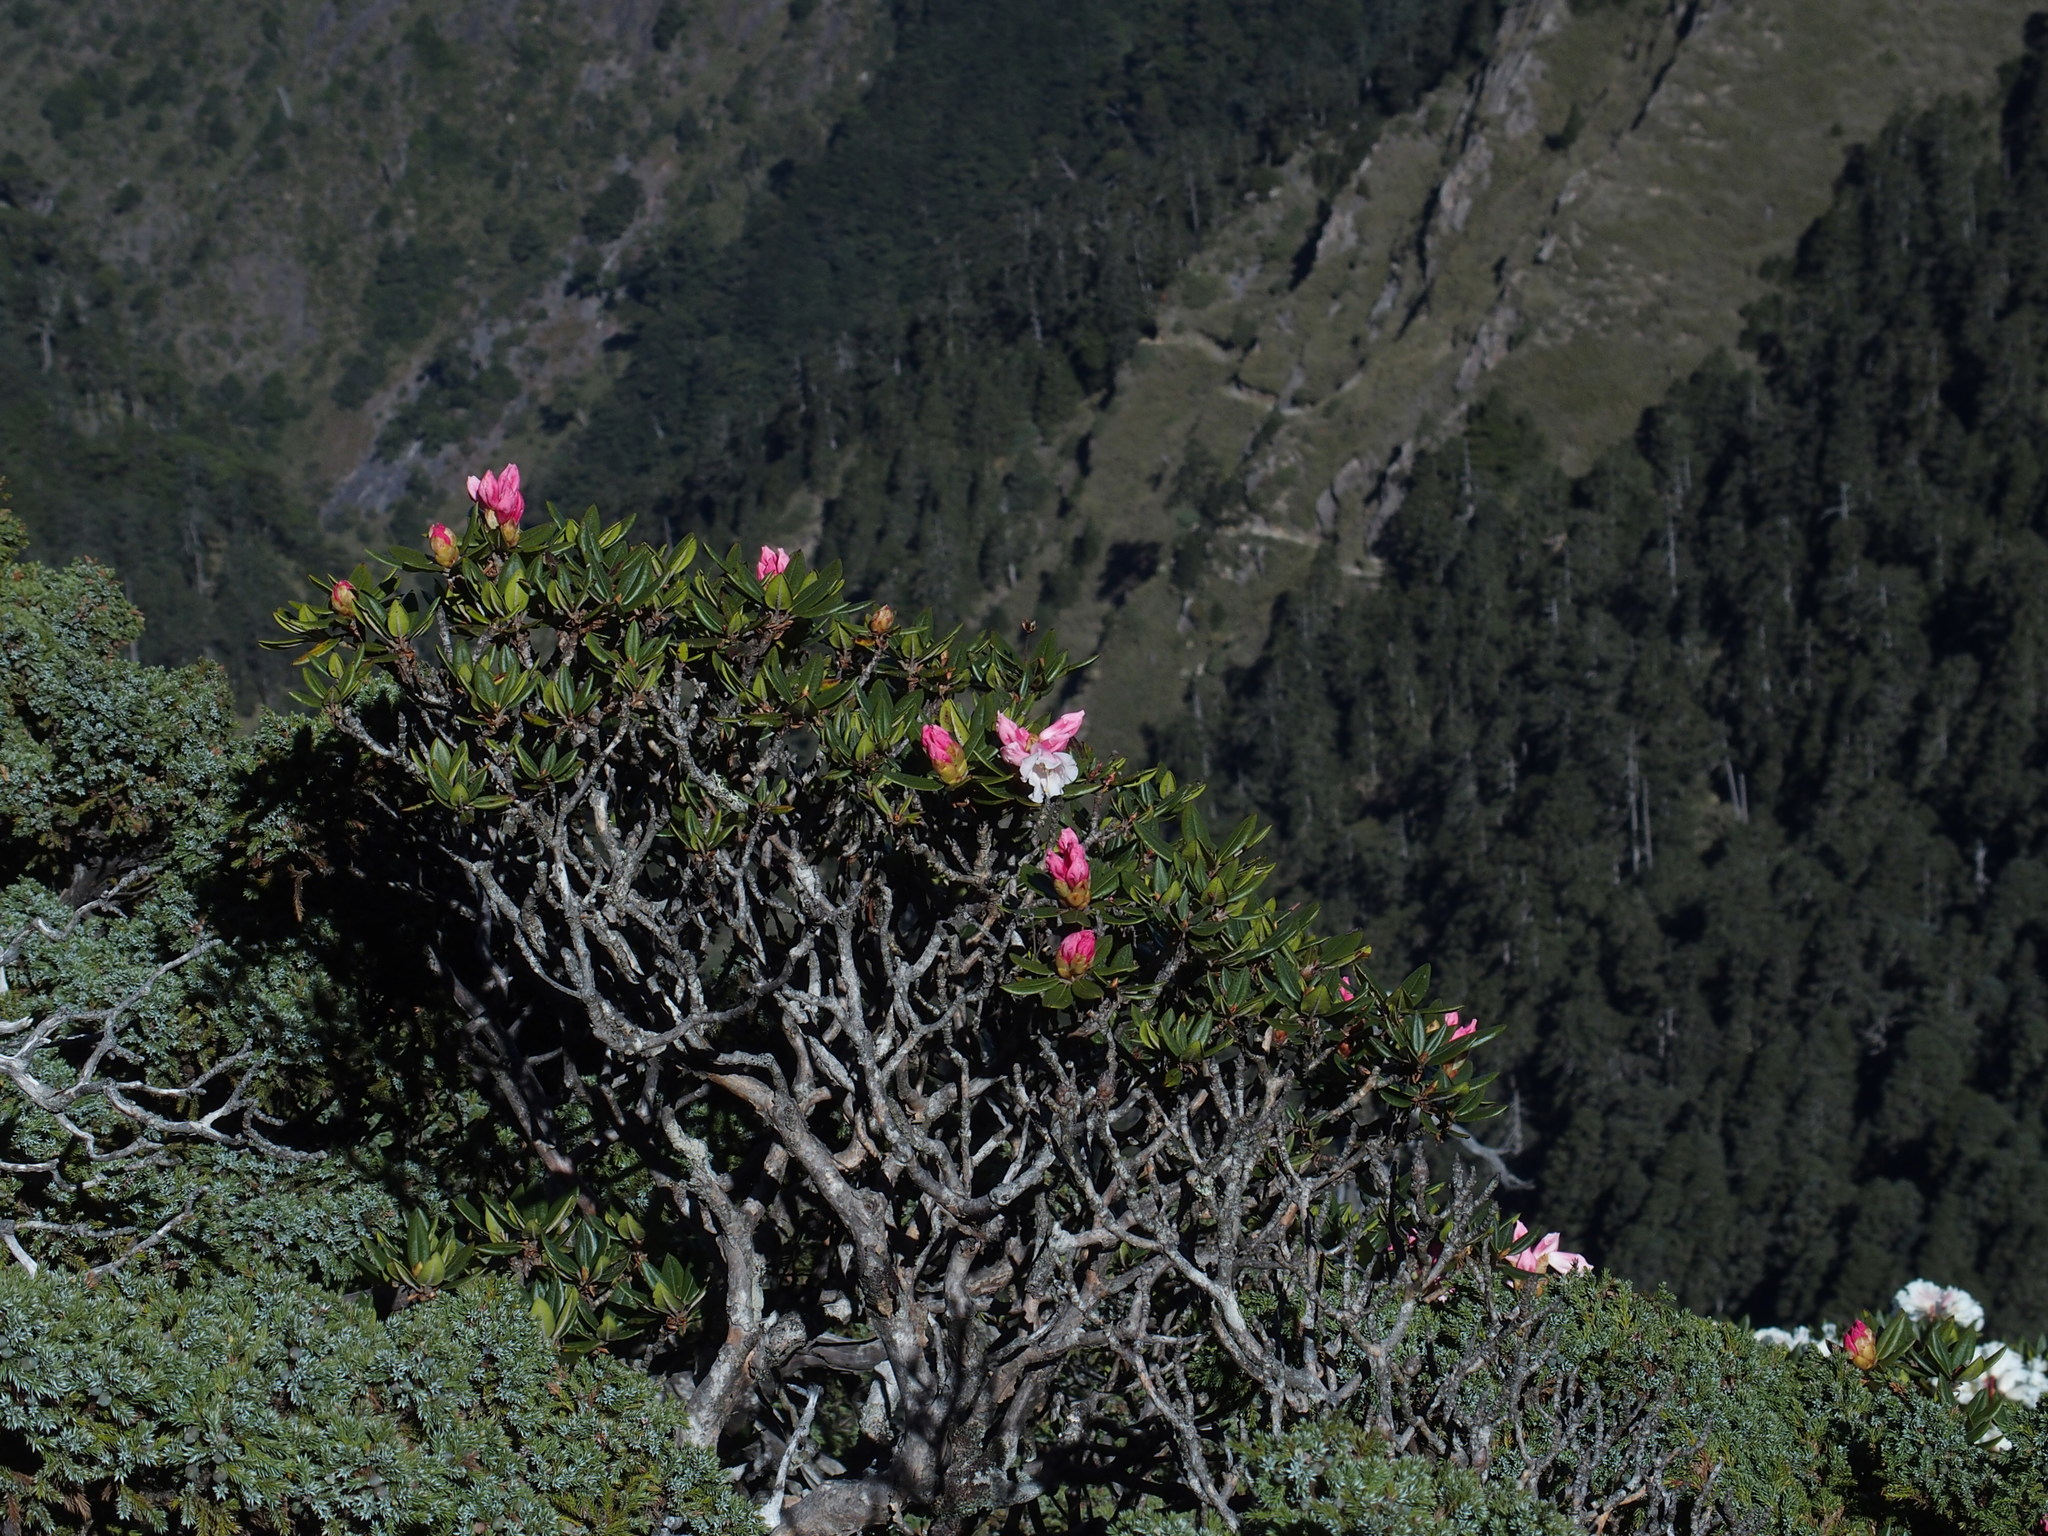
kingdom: Plantae
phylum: Tracheophyta
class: Magnoliopsida
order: Ericales
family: Ericaceae
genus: Rhododendron
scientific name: Rhododendron pseudochrysanthum
